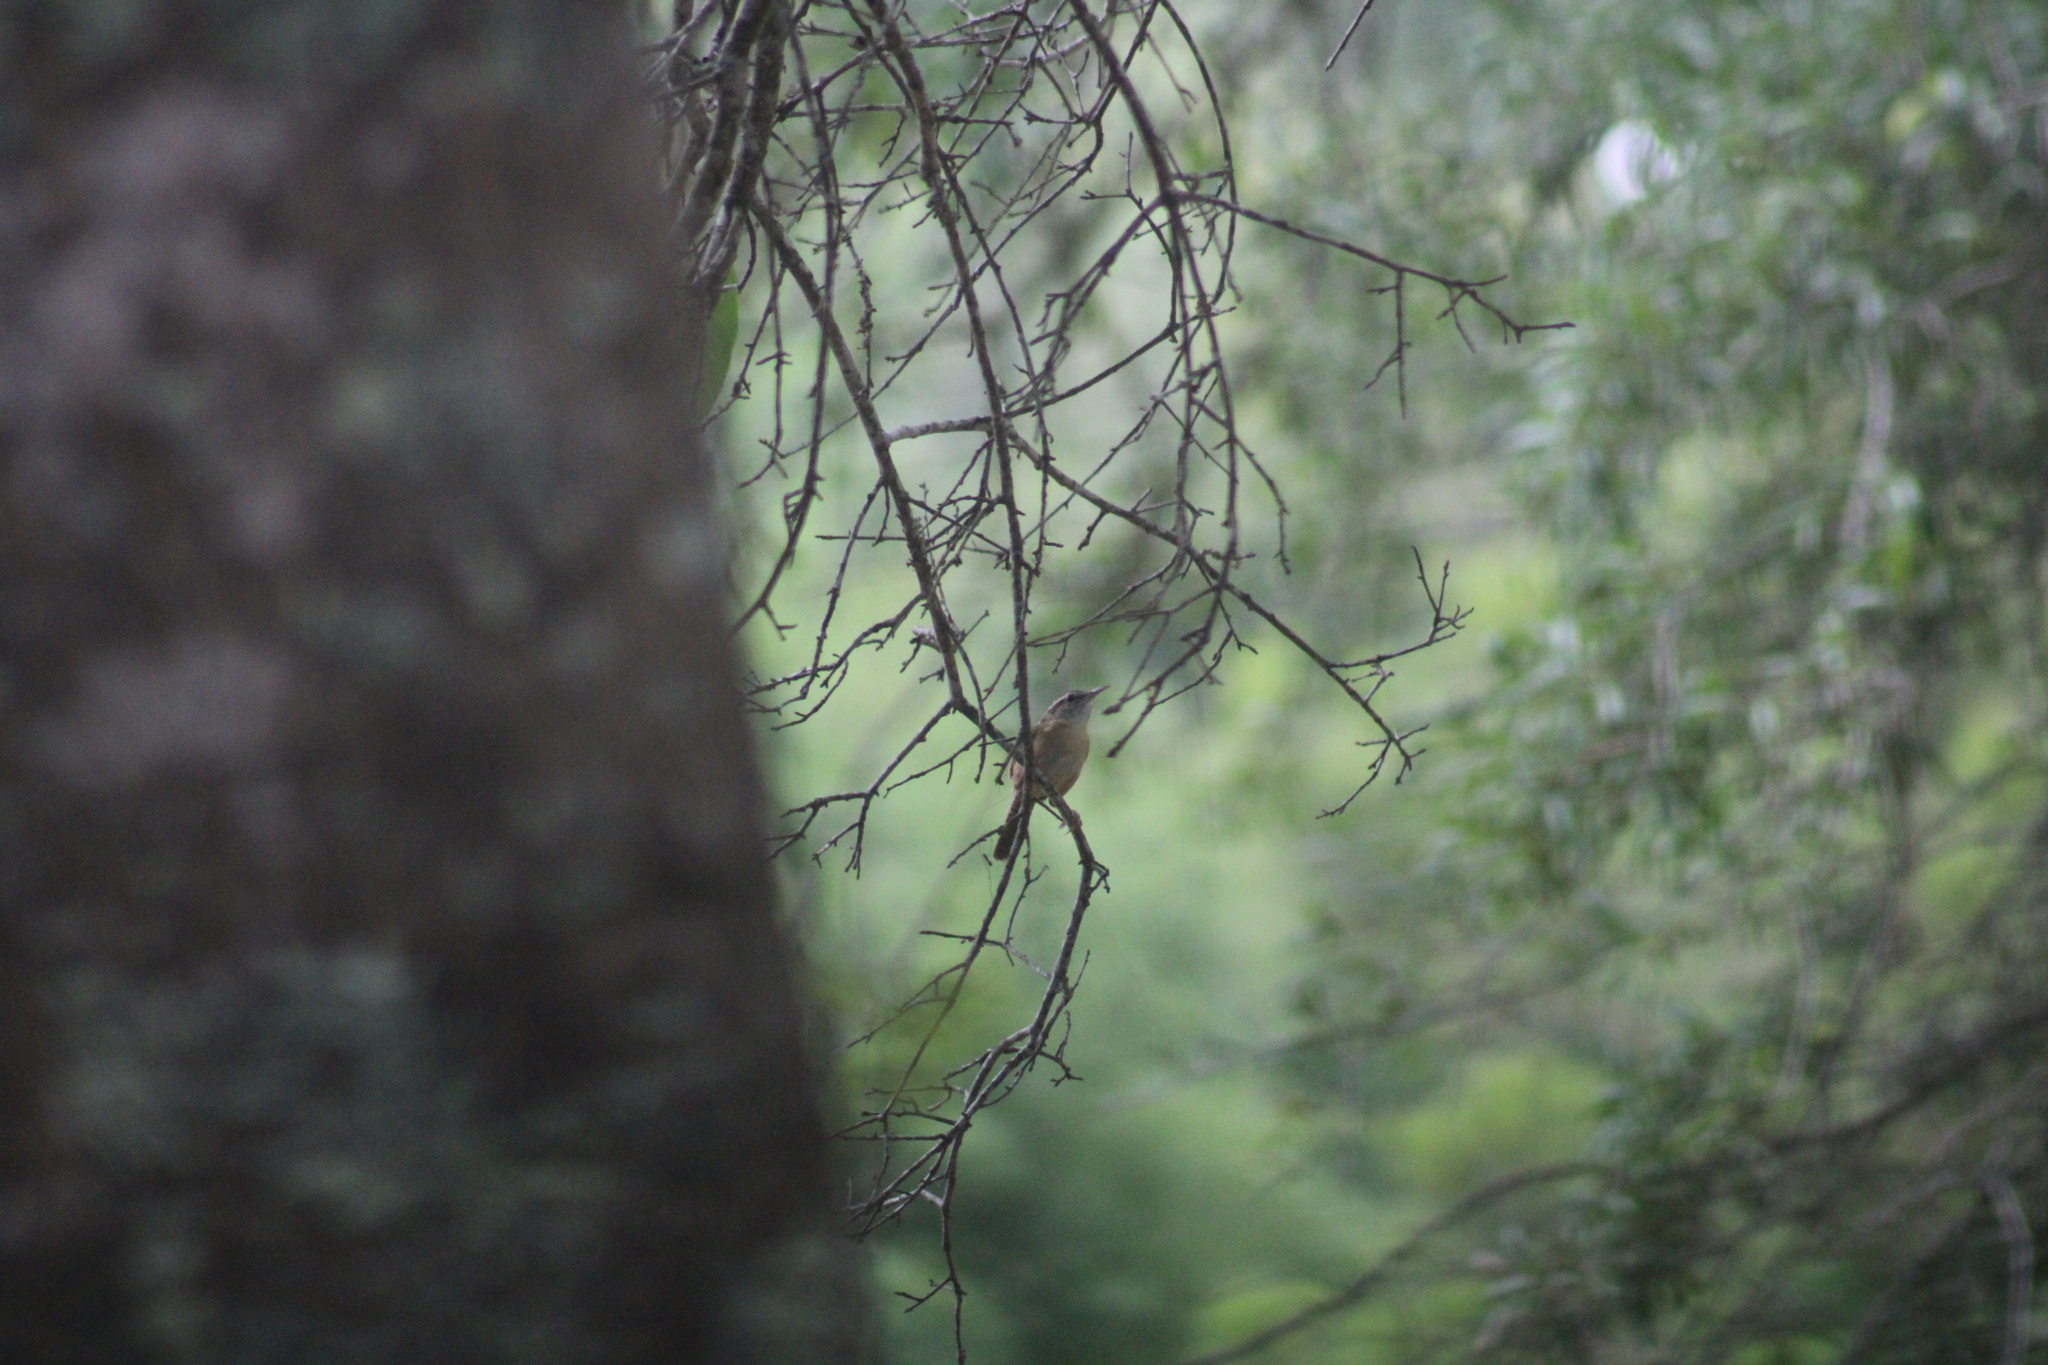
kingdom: Animalia
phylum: Chordata
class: Aves
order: Passeriformes
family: Troglodytidae
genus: Thryothorus
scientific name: Thryothorus ludovicianus
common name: Carolina wren
